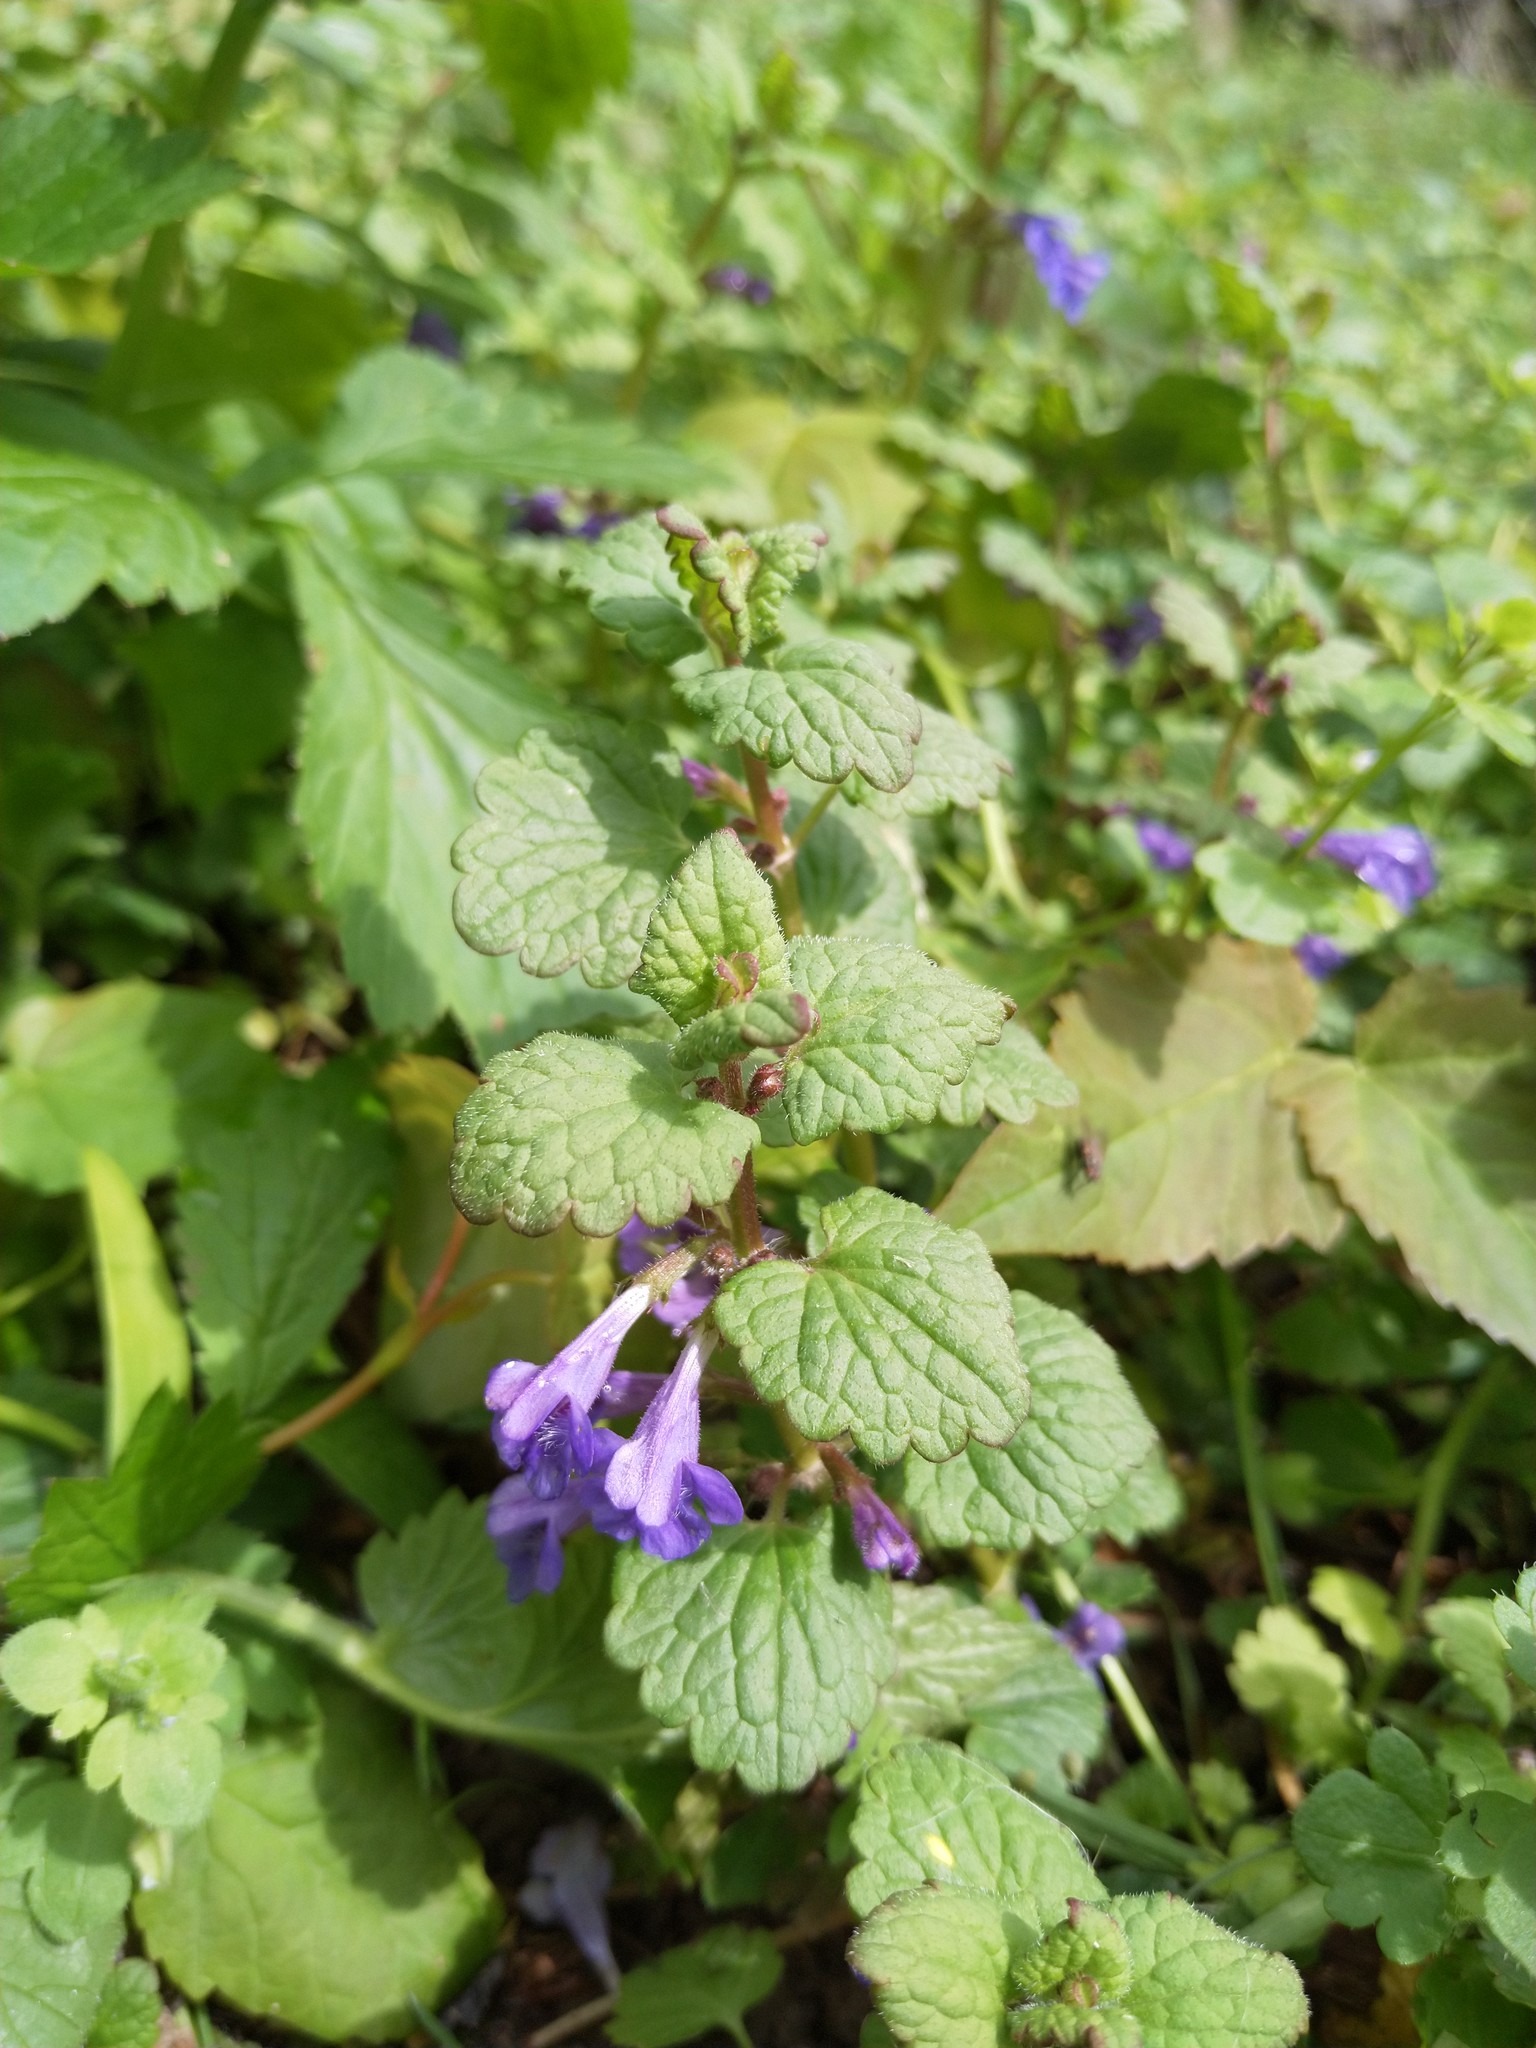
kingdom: Plantae
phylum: Tracheophyta
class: Magnoliopsida
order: Lamiales
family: Lamiaceae
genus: Glechoma
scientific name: Glechoma hederacea
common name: Ground ivy
